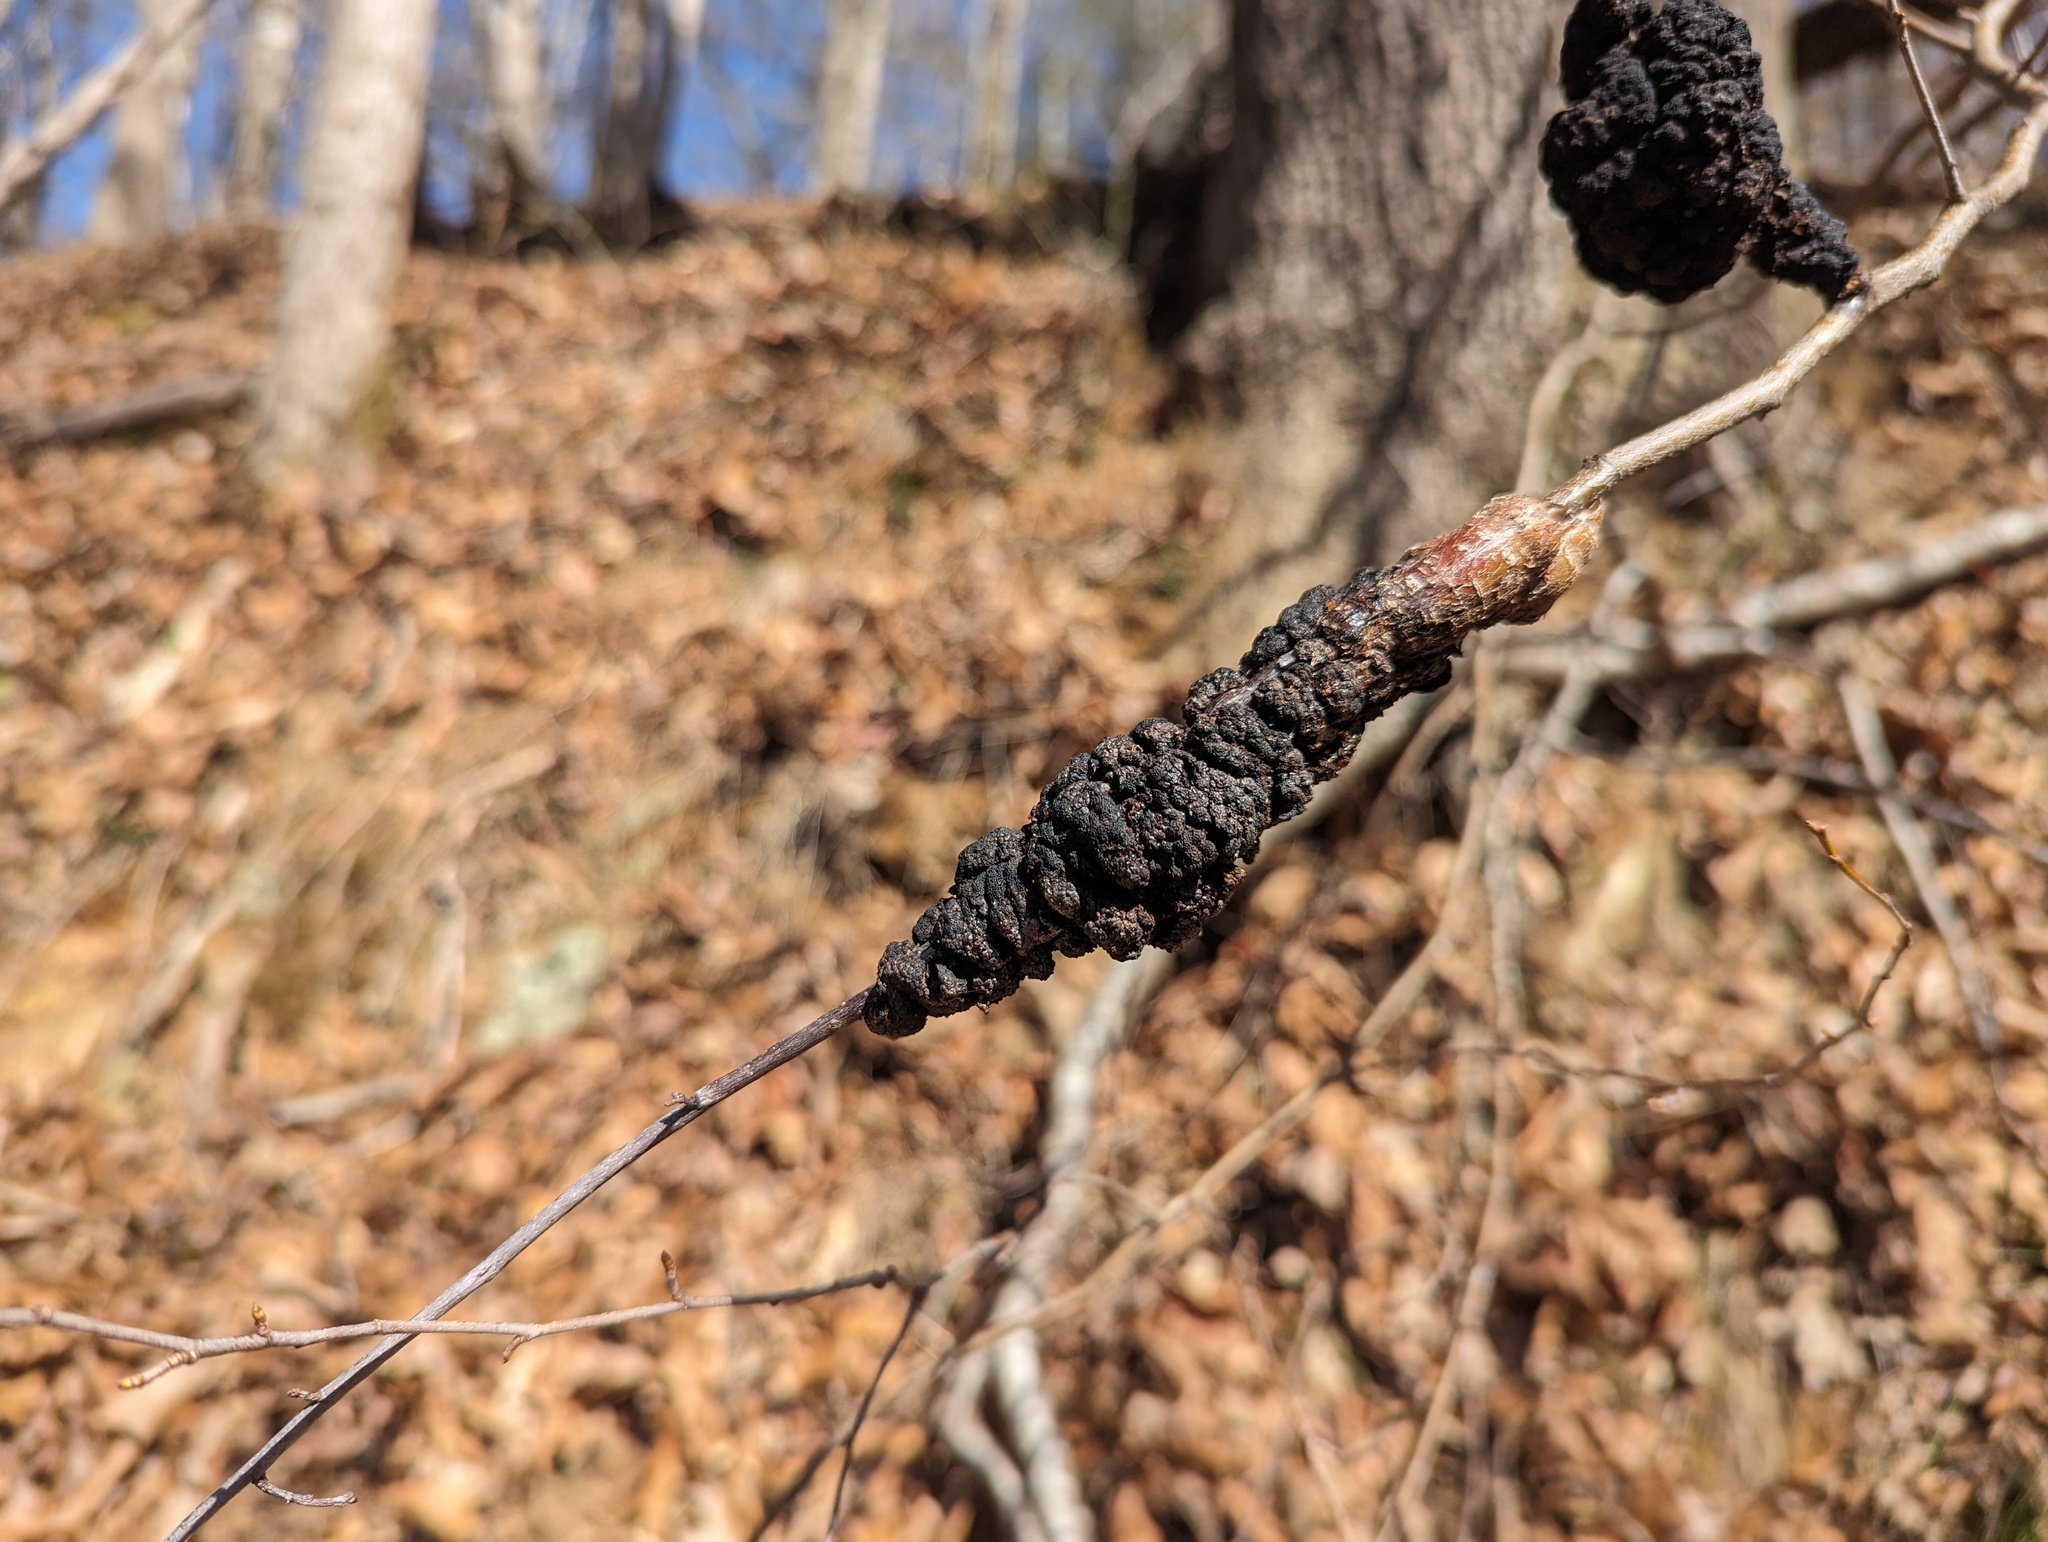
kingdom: Fungi
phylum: Ascomycota
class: Dothideomycetes
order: Venturiales
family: Venturiaceae
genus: Apiosporina
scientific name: Apiosporina morbosa
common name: Black knot
